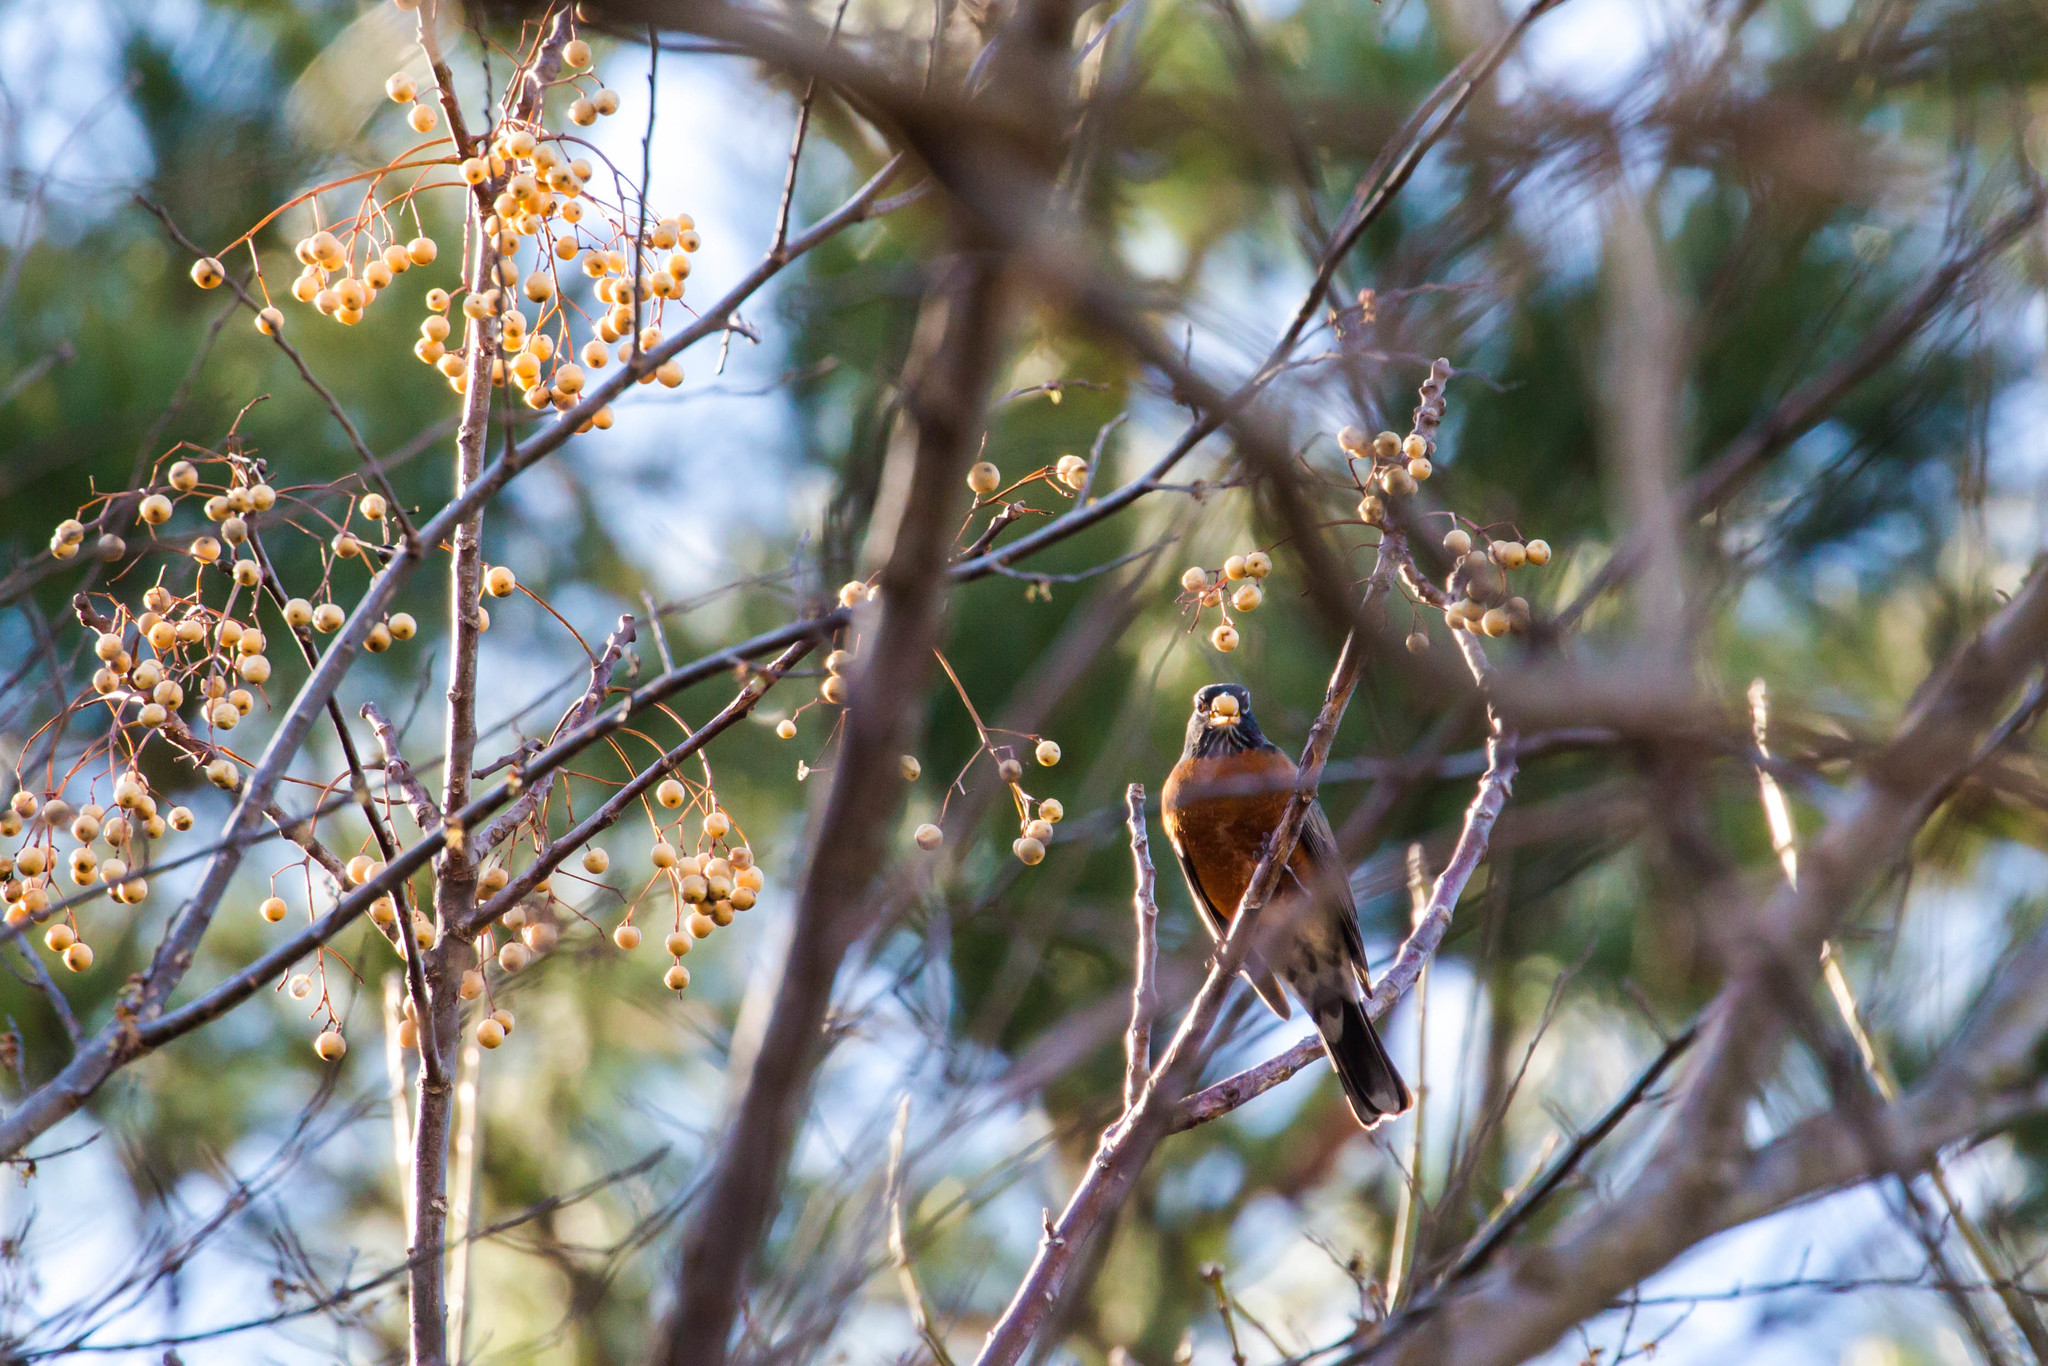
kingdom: Animalia
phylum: Chordata
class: Aves
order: Passeriformes
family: Turdidae
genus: Turdus
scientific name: Turdus migratorius
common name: American robin
